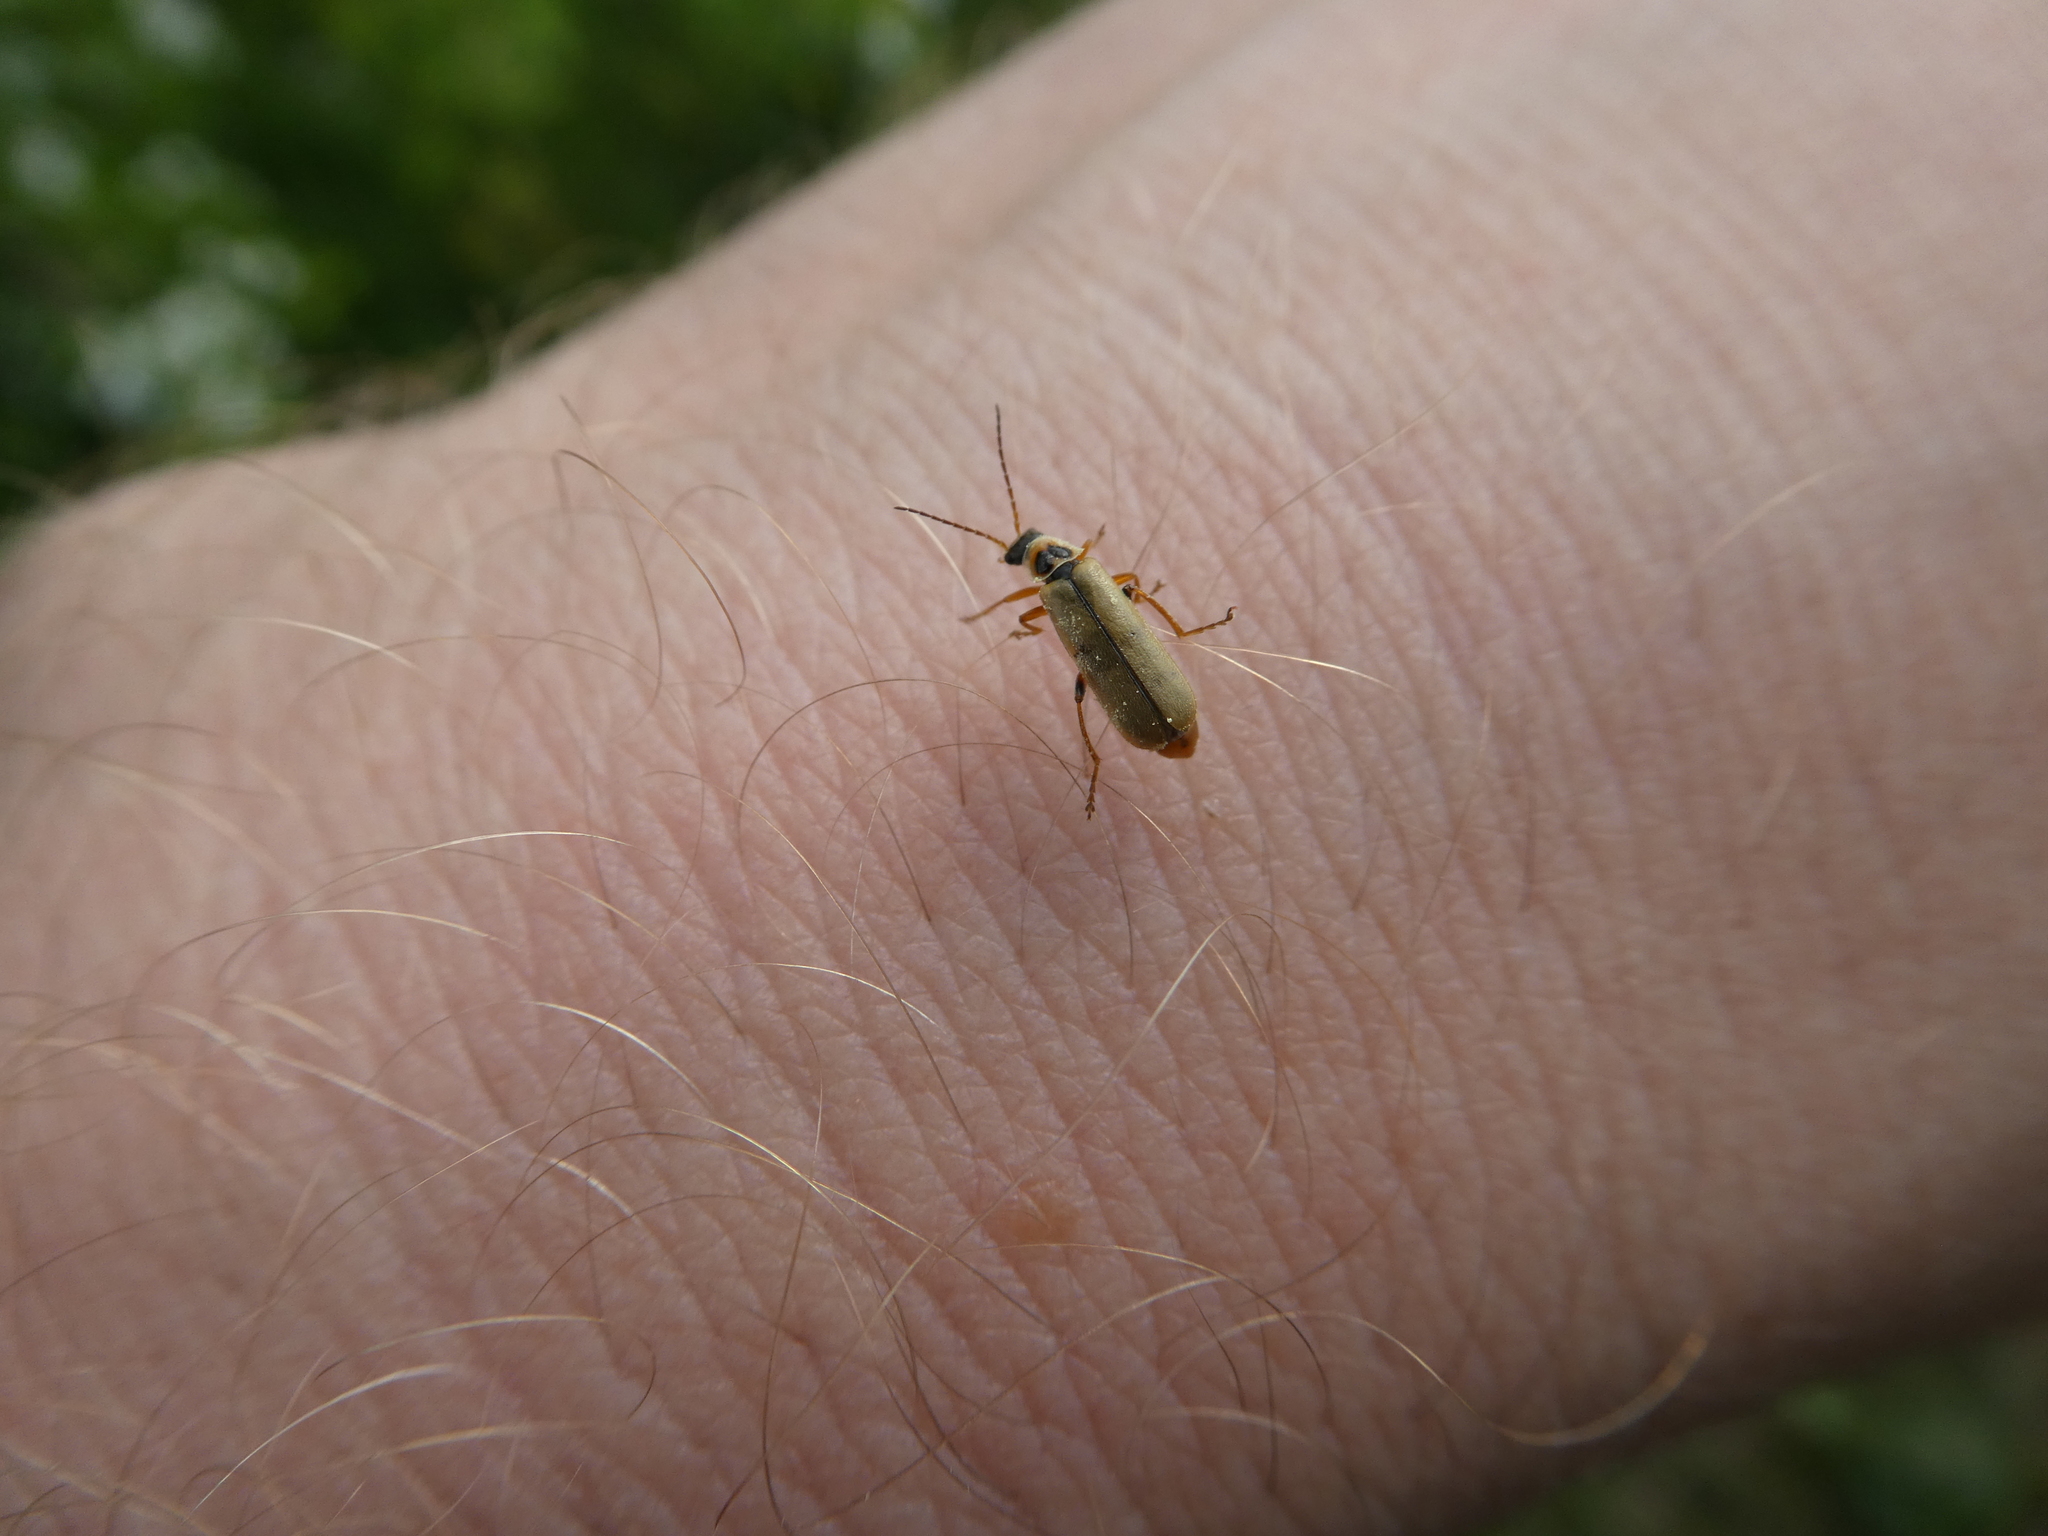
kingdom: Animalia
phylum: Arthropoda
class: Insecta
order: Coleoptera
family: Cantharidae
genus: Metacantharis
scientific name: Metacantharis clypeata
